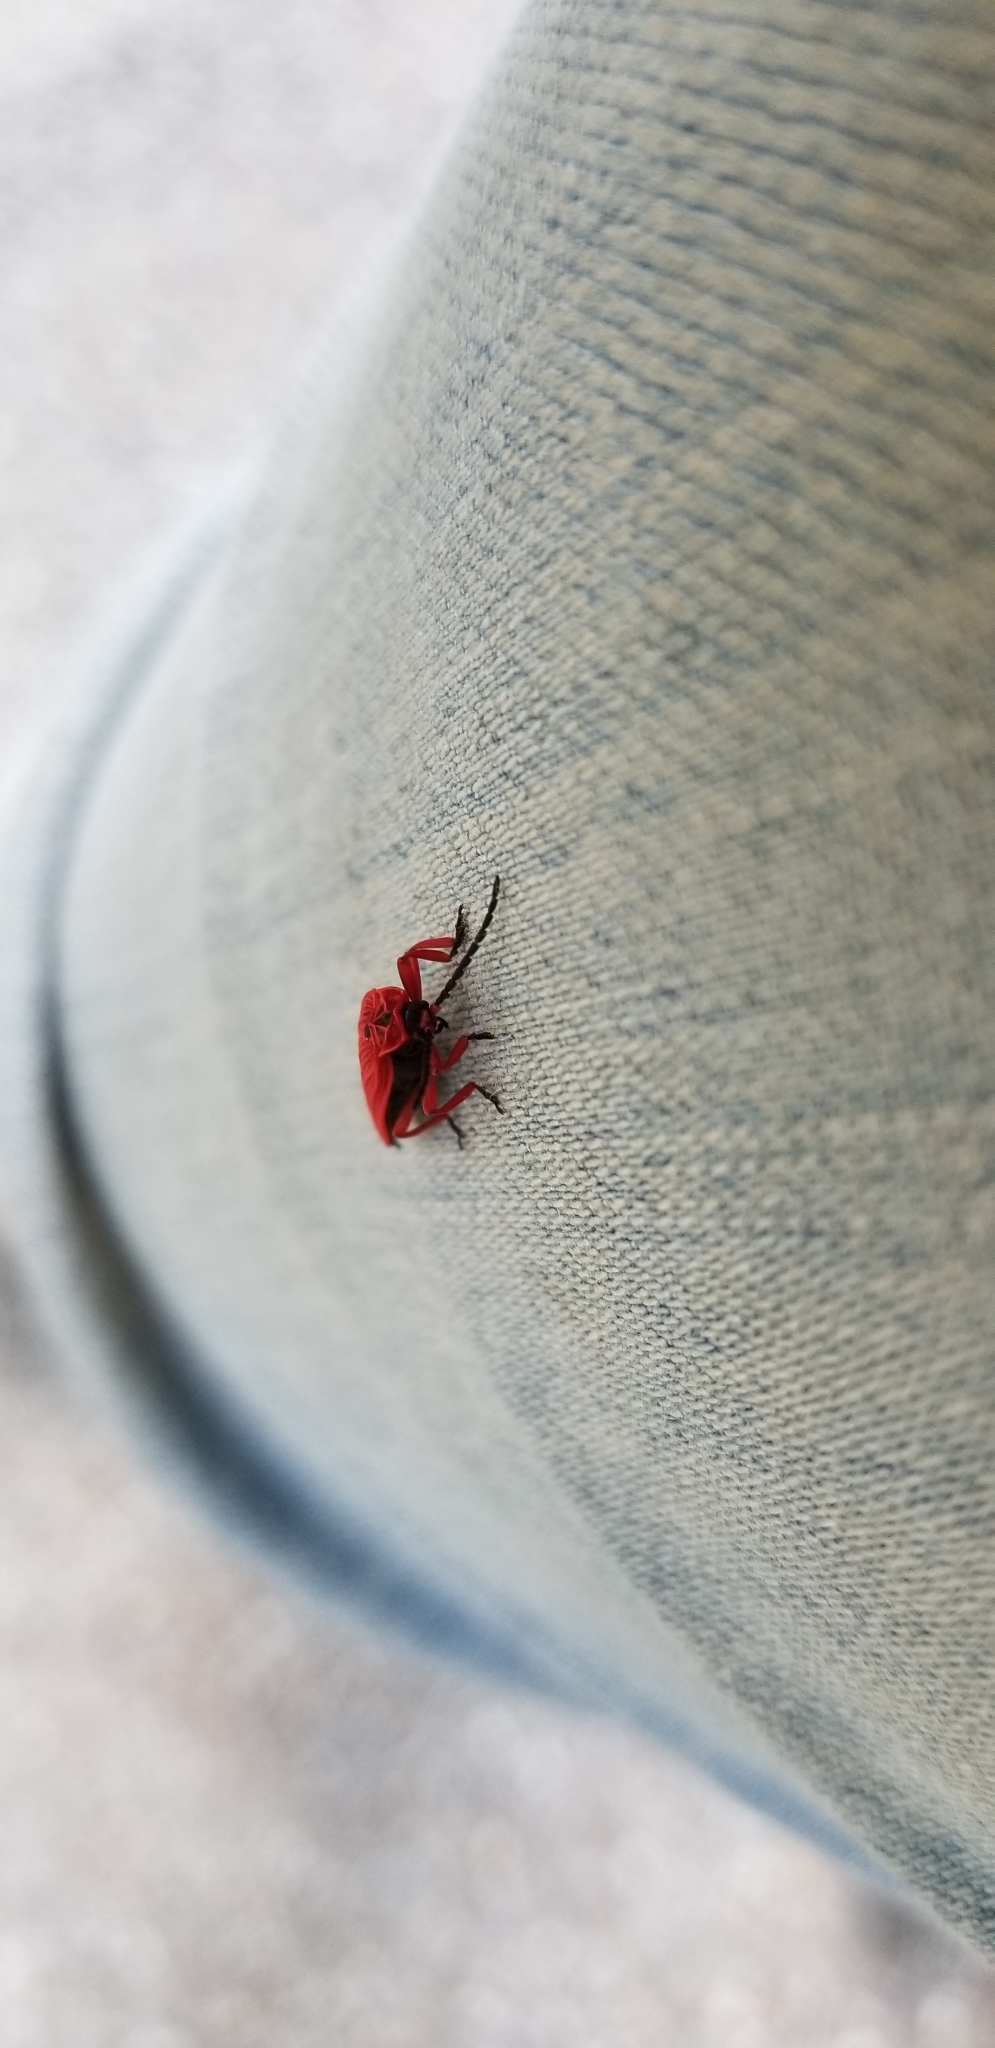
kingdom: Animalia
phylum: Arthropoda
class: Insecta
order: Coleoptera
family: Lycidae
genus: Dictyoptera
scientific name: Dictyoptera simplicipes
